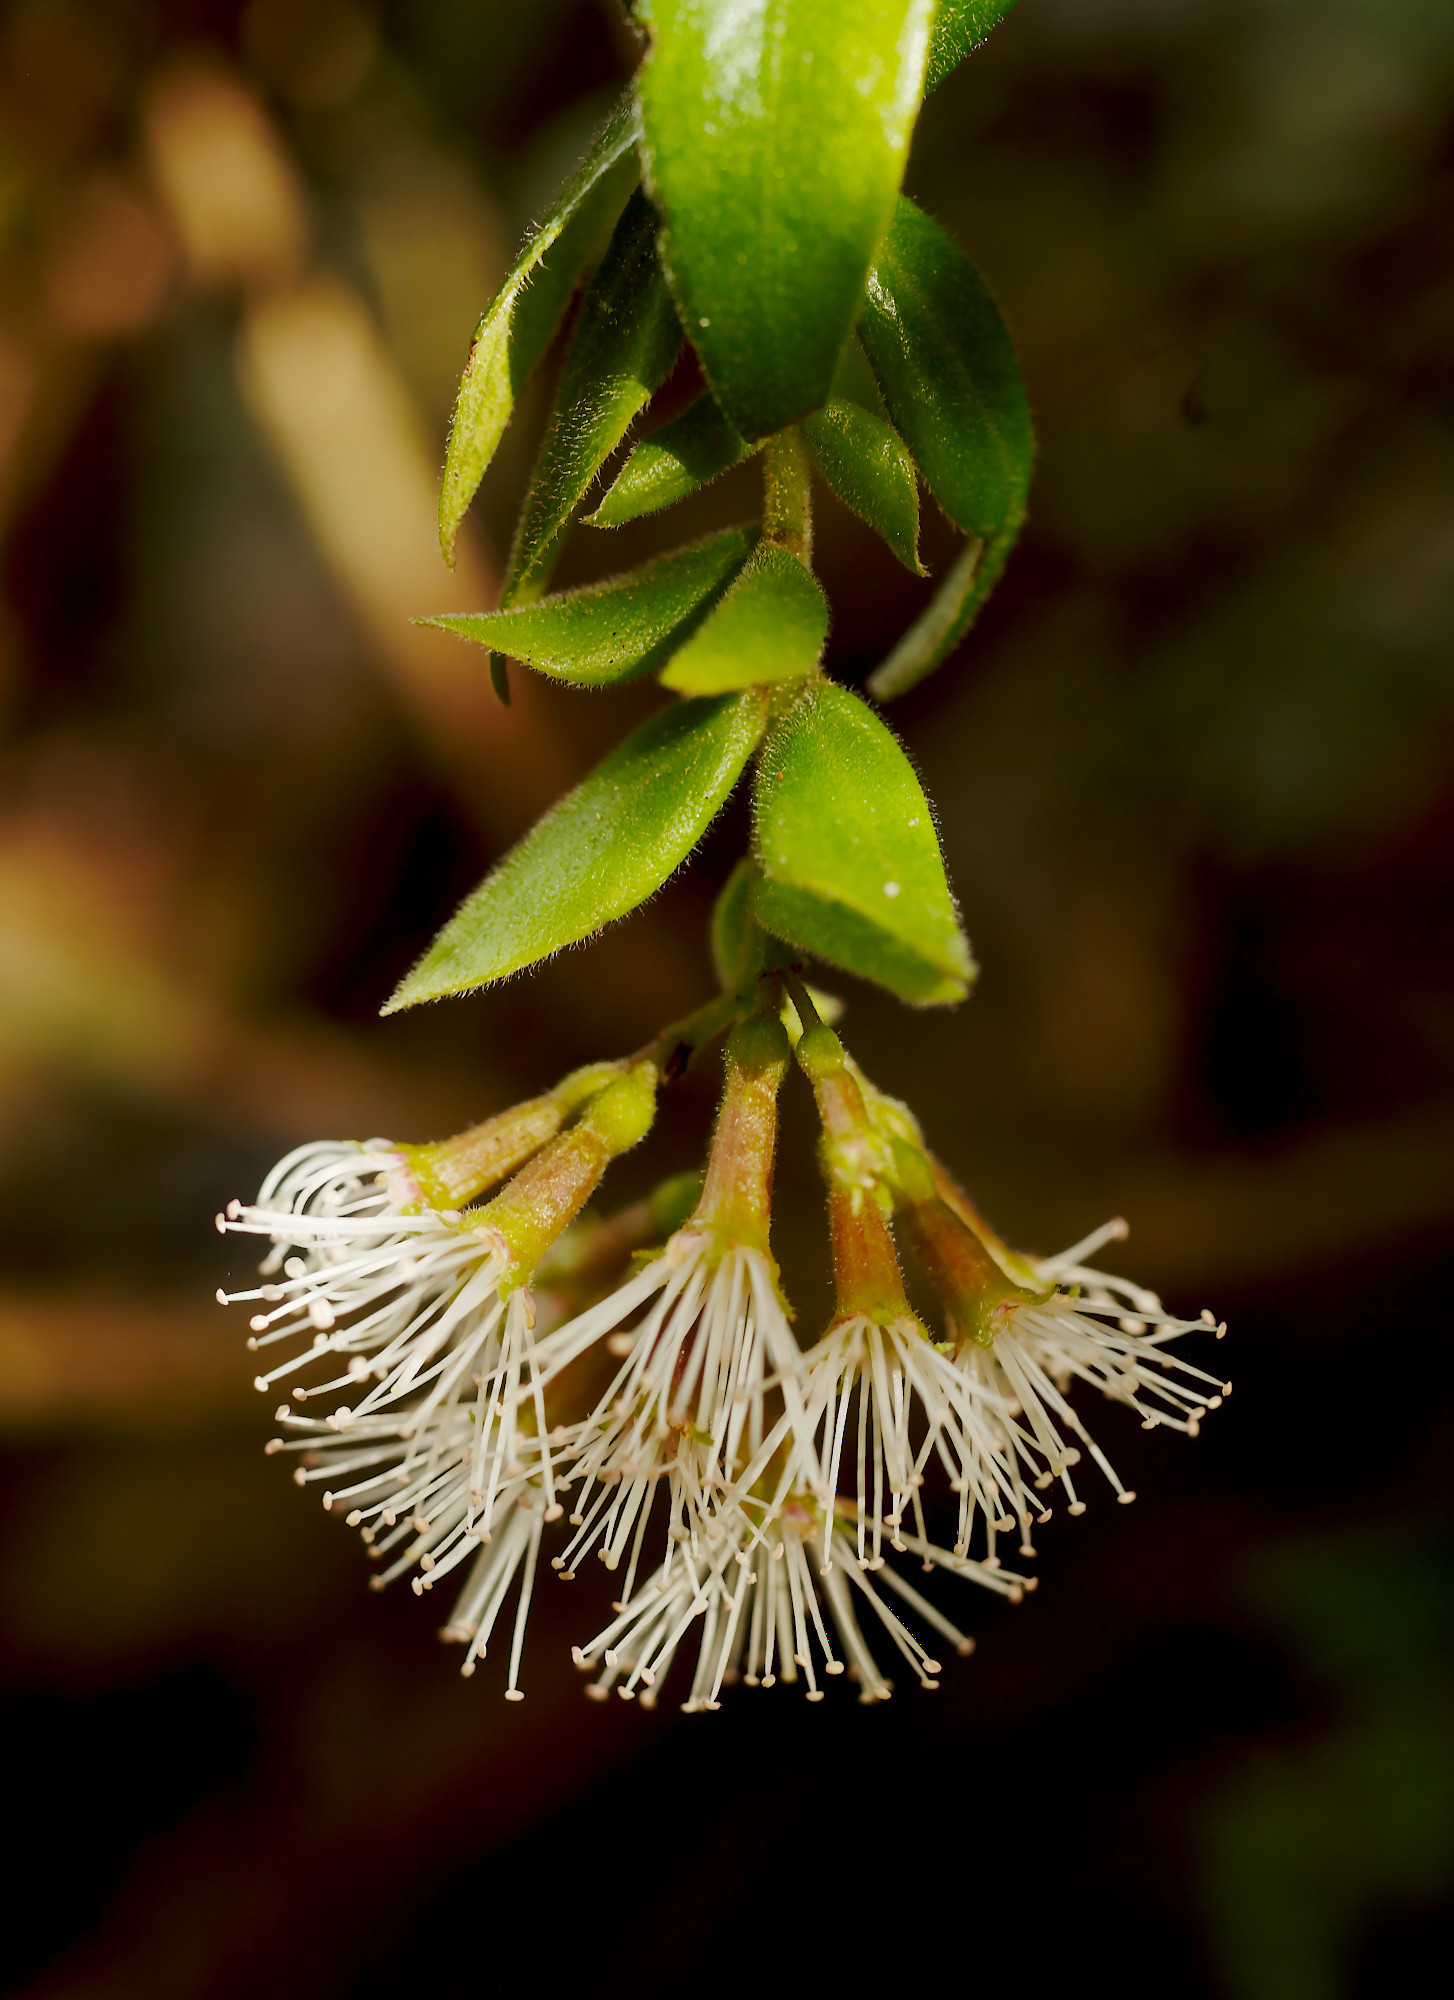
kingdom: Plantae
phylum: Tracheophyta
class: Magnoliopsida
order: Myrtales
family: Myrtaceae
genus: Metrosideros
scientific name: Metrosideros colensoi
